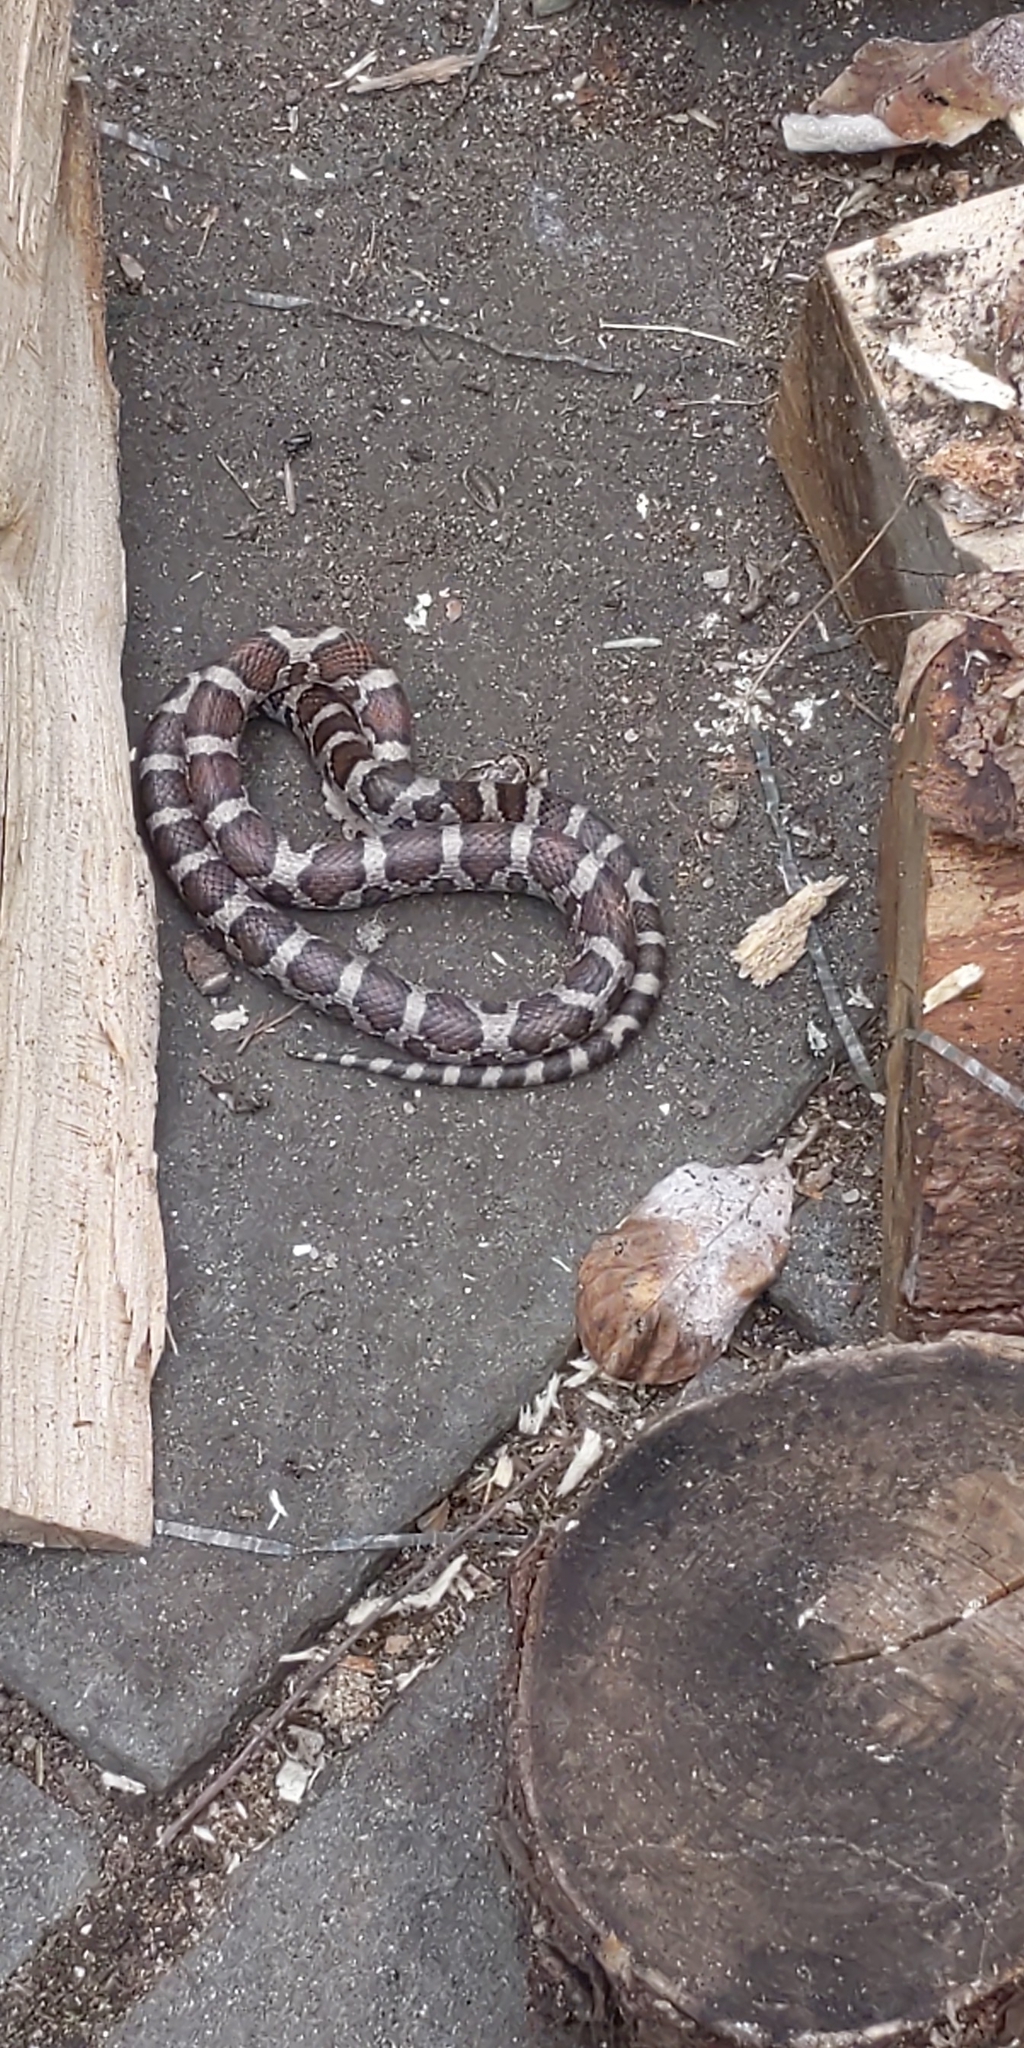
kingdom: Animalia
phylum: Chordata
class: Squamata
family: Colubridae
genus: Lampropeltis
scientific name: Lampropeltis triangulum
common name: Eastern milksnake
